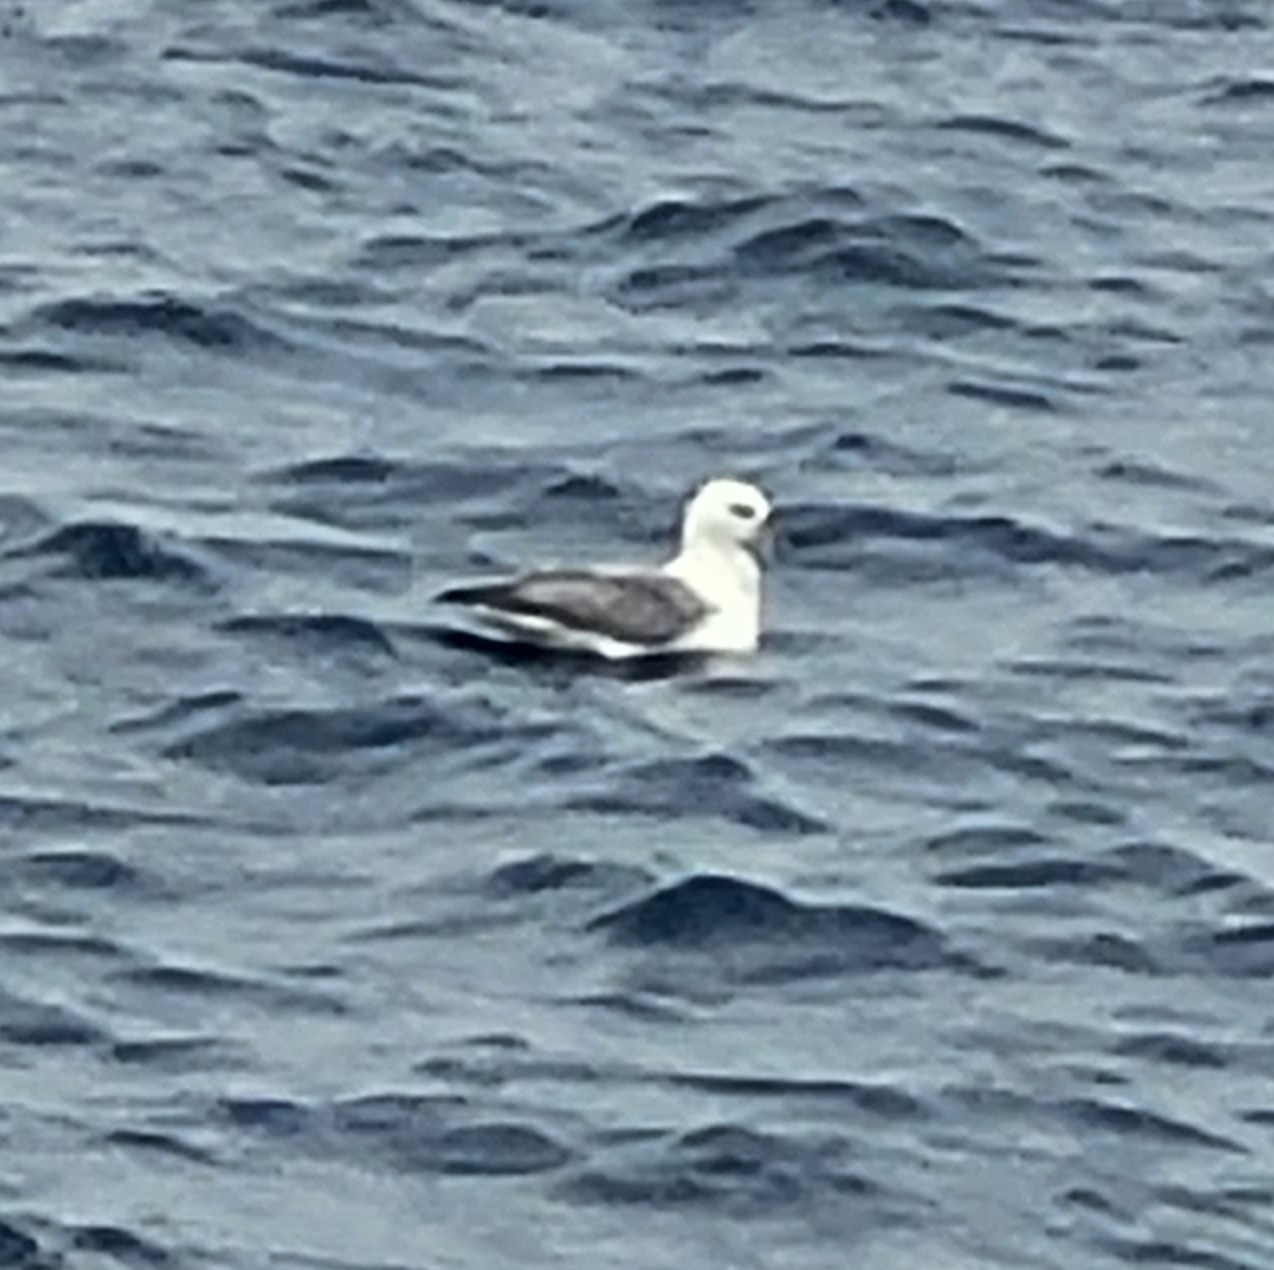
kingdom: Animalia
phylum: Chordata
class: Aves
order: Procellariiformes
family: Procellariidae
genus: Fulmarus
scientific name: Fulmarus glacialis
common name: Northern fulmar
